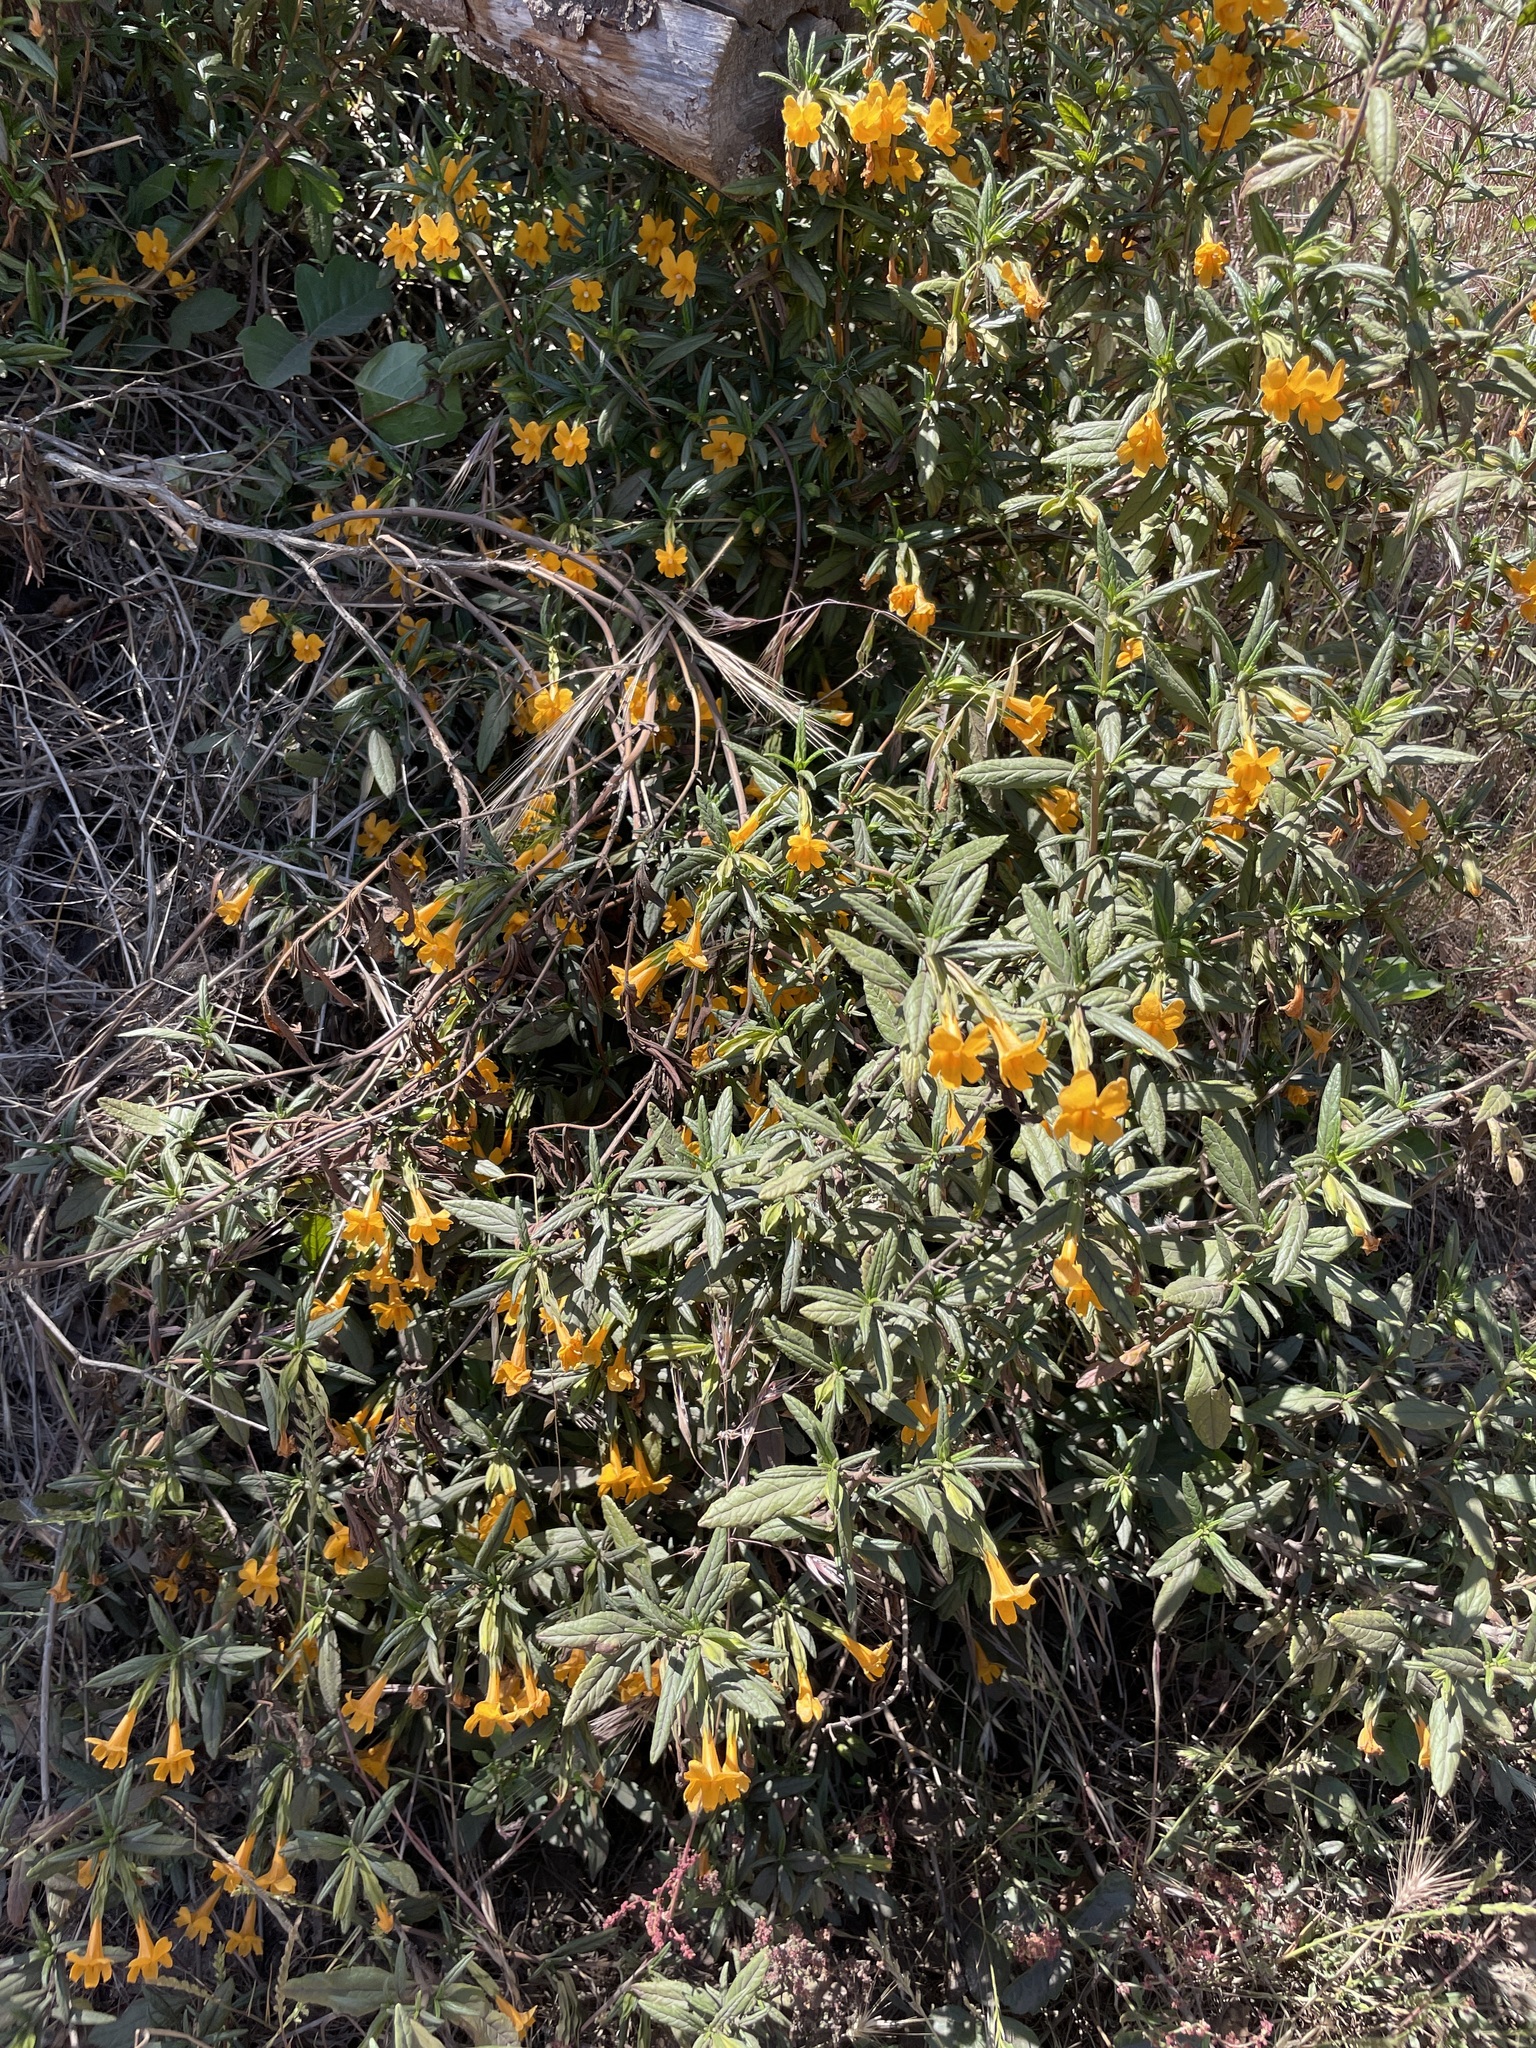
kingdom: Plantae
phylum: Tracheophyta
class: Magnoliopsida
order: Lamiales
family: Phrymaceae
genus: Diplacus
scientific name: Diplacus aurantiacus
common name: Bush monkey-flower
